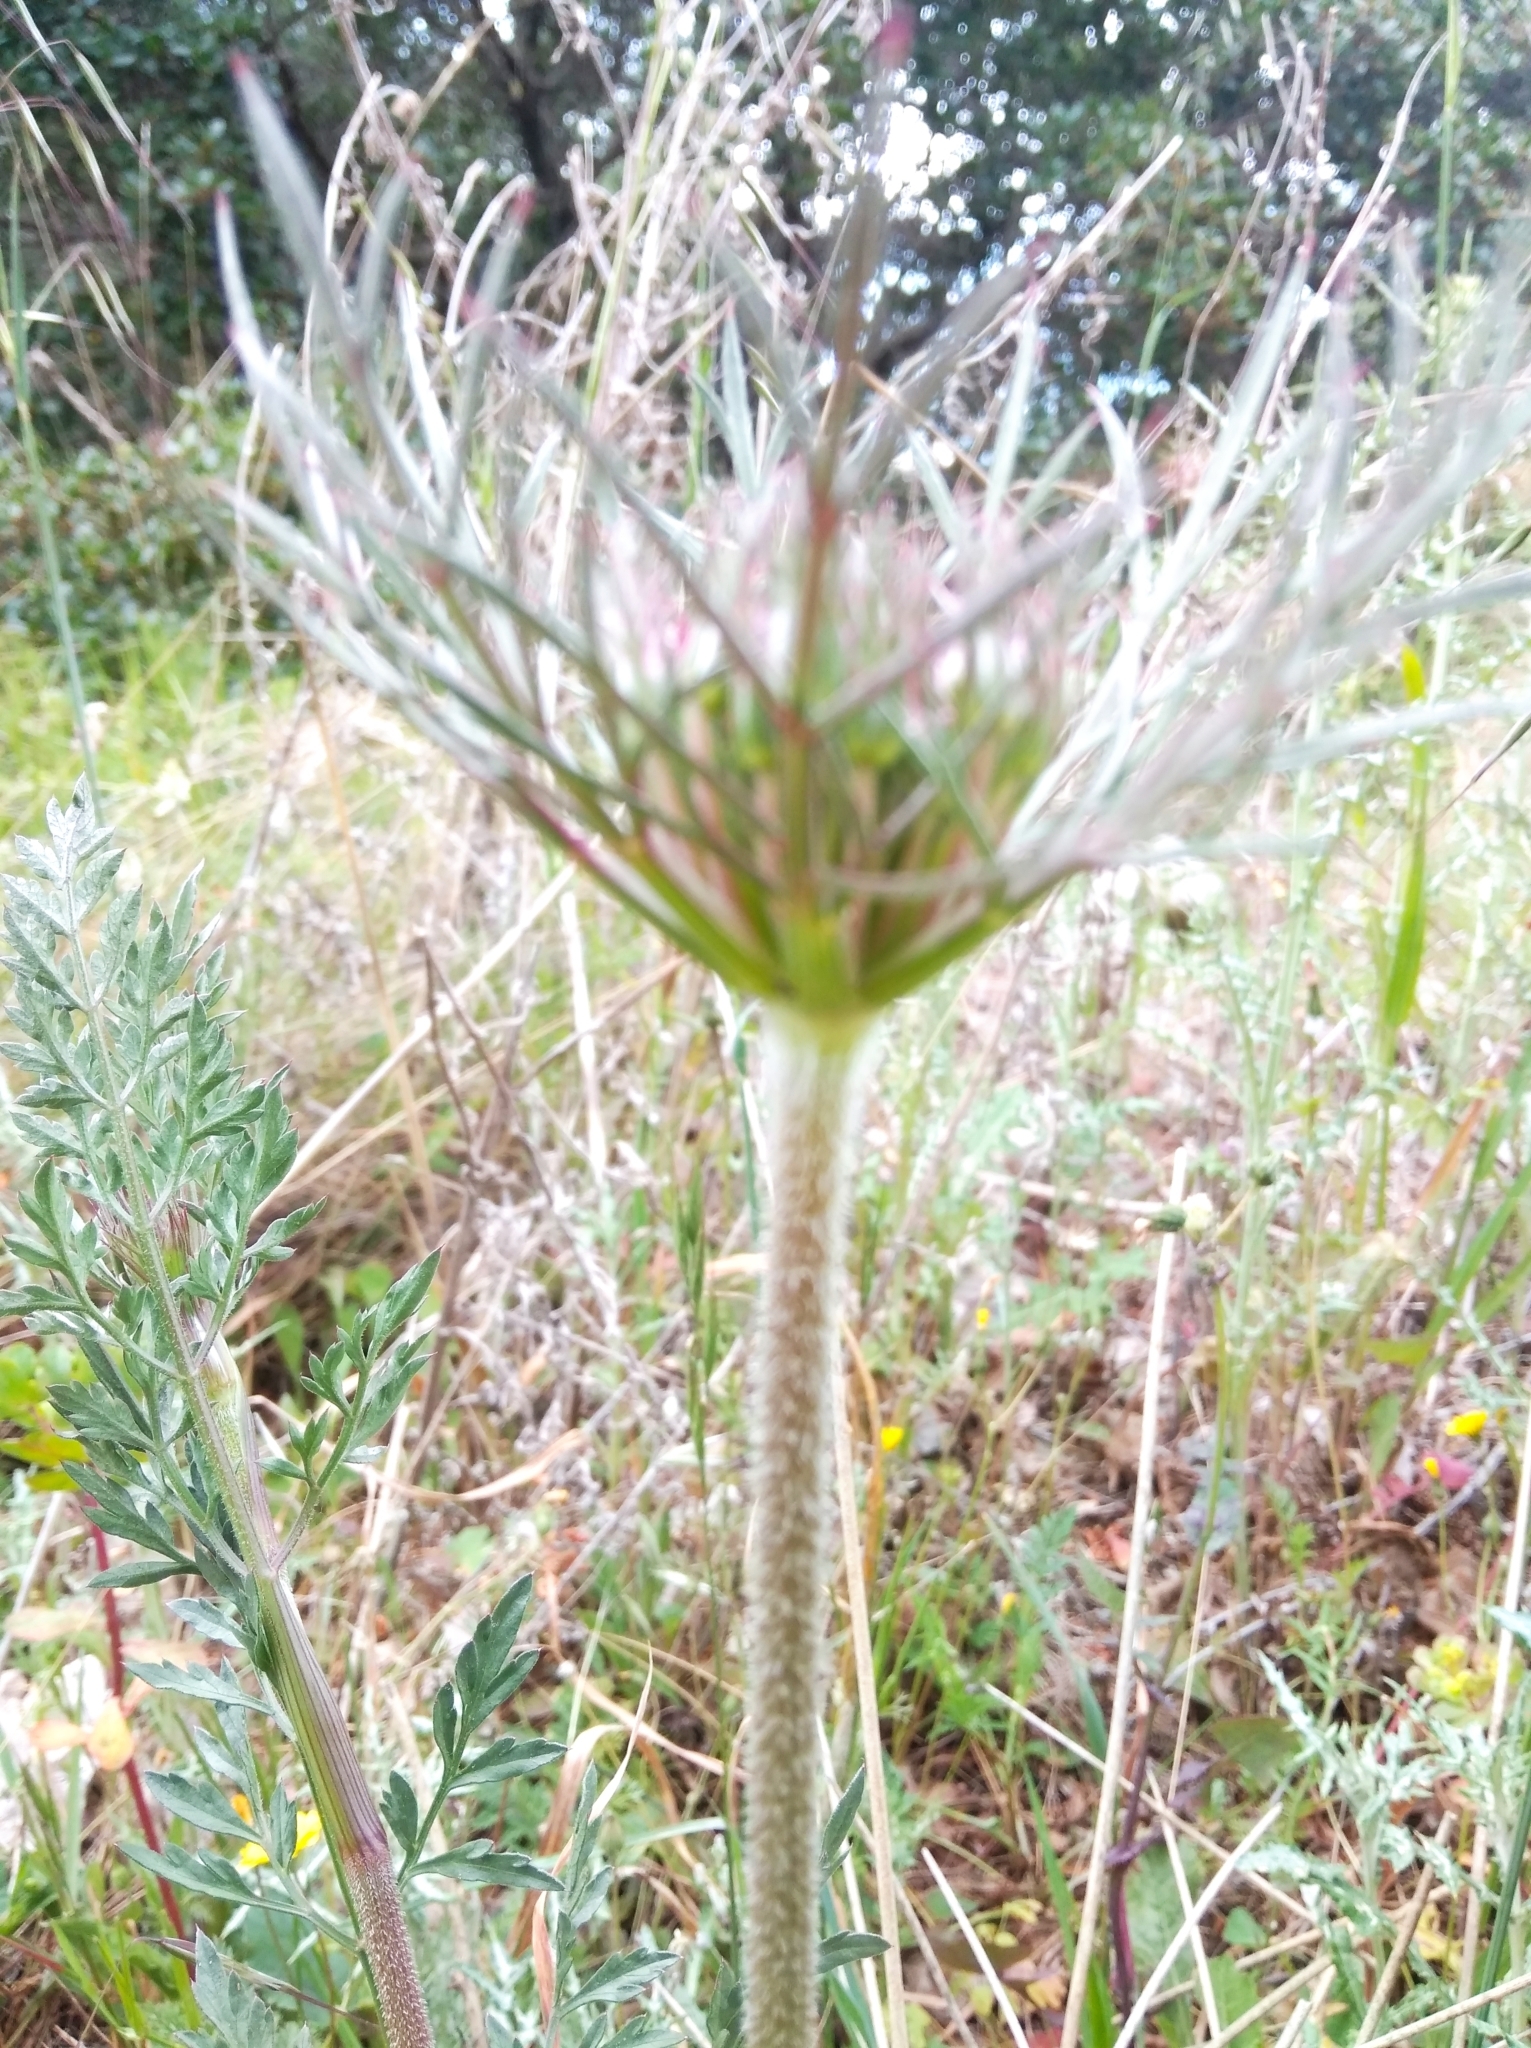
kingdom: Plantae
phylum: Tracheophyta
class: Magnoliopsida
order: Apiales
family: Apiaceae
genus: Daucus
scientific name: Daucus carota
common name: Wild carrot
